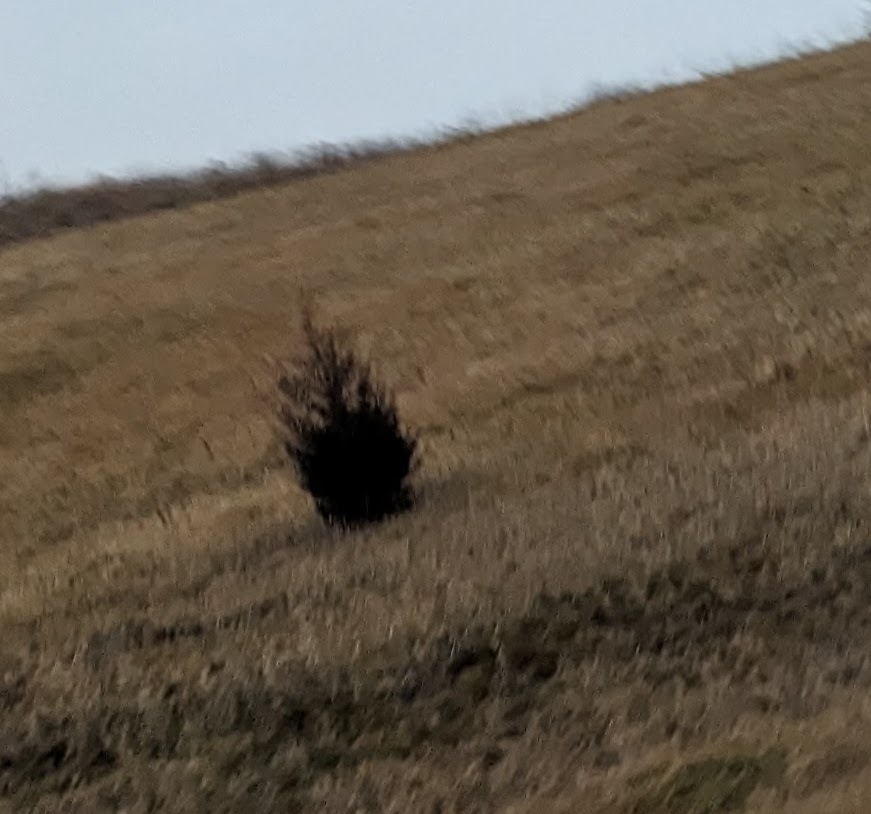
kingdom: Plantae
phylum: Tracheophyta
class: Pinopsida
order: Pinales
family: Cupressaceae
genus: Juniperus
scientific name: Juniperus virginiana
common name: Red juniper
